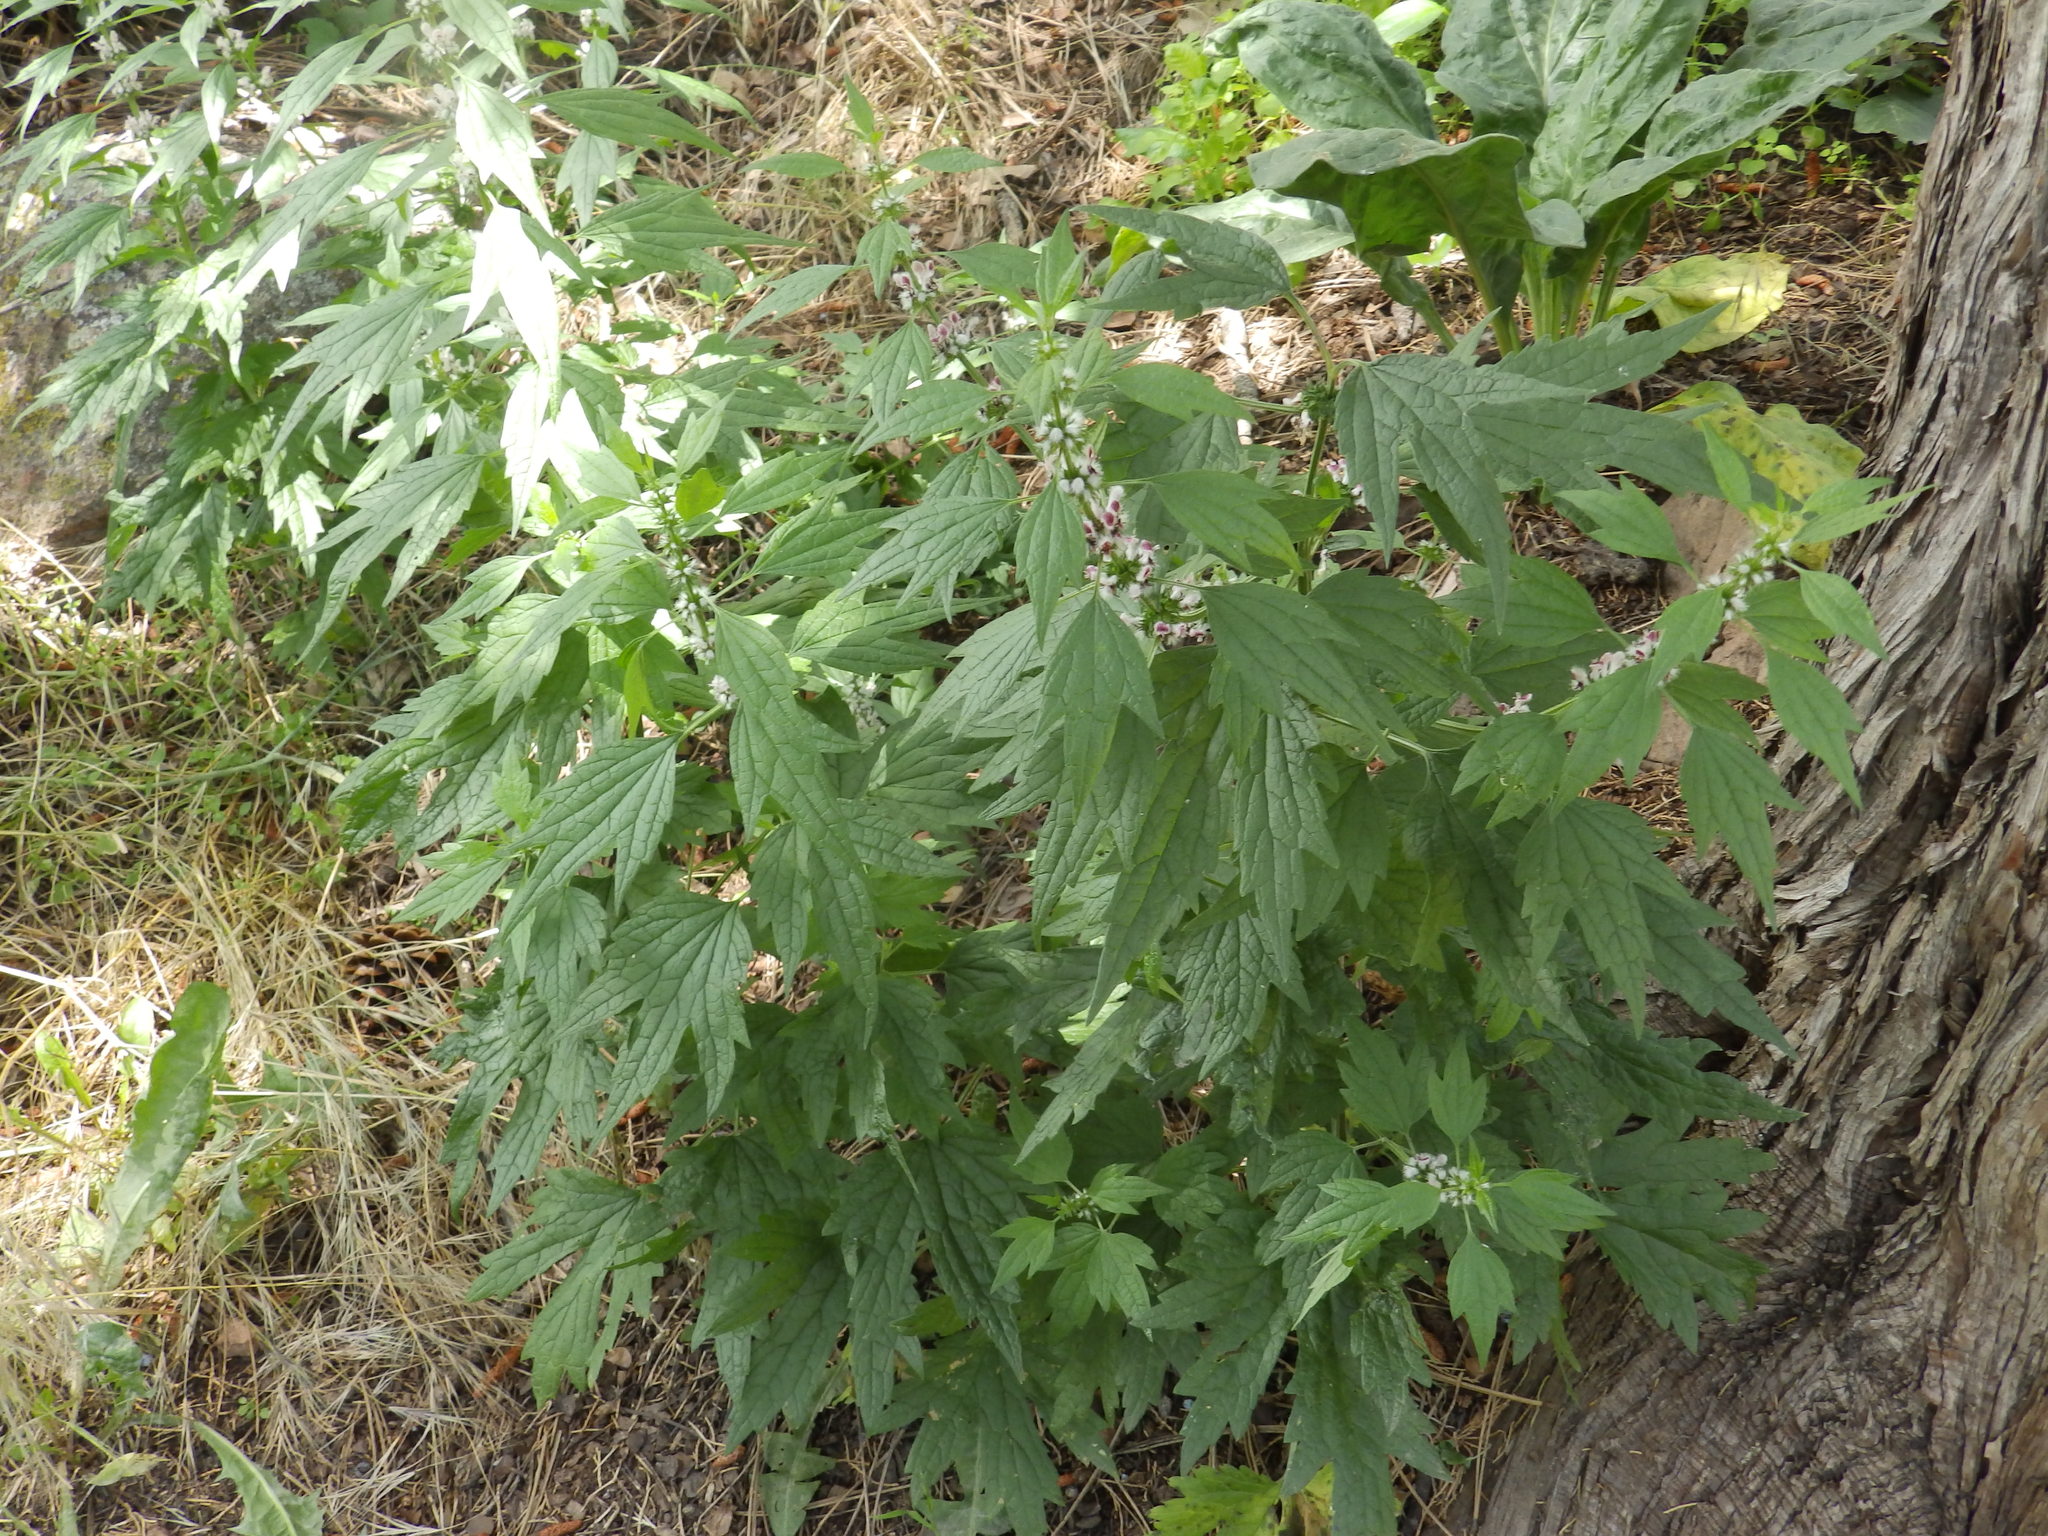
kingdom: Plantae
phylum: Tracheophyta
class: Magnoliopsida
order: Lamiales
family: Lamiaceae
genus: Leonurus
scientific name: Leonurus cardiaca
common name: Motherwort
